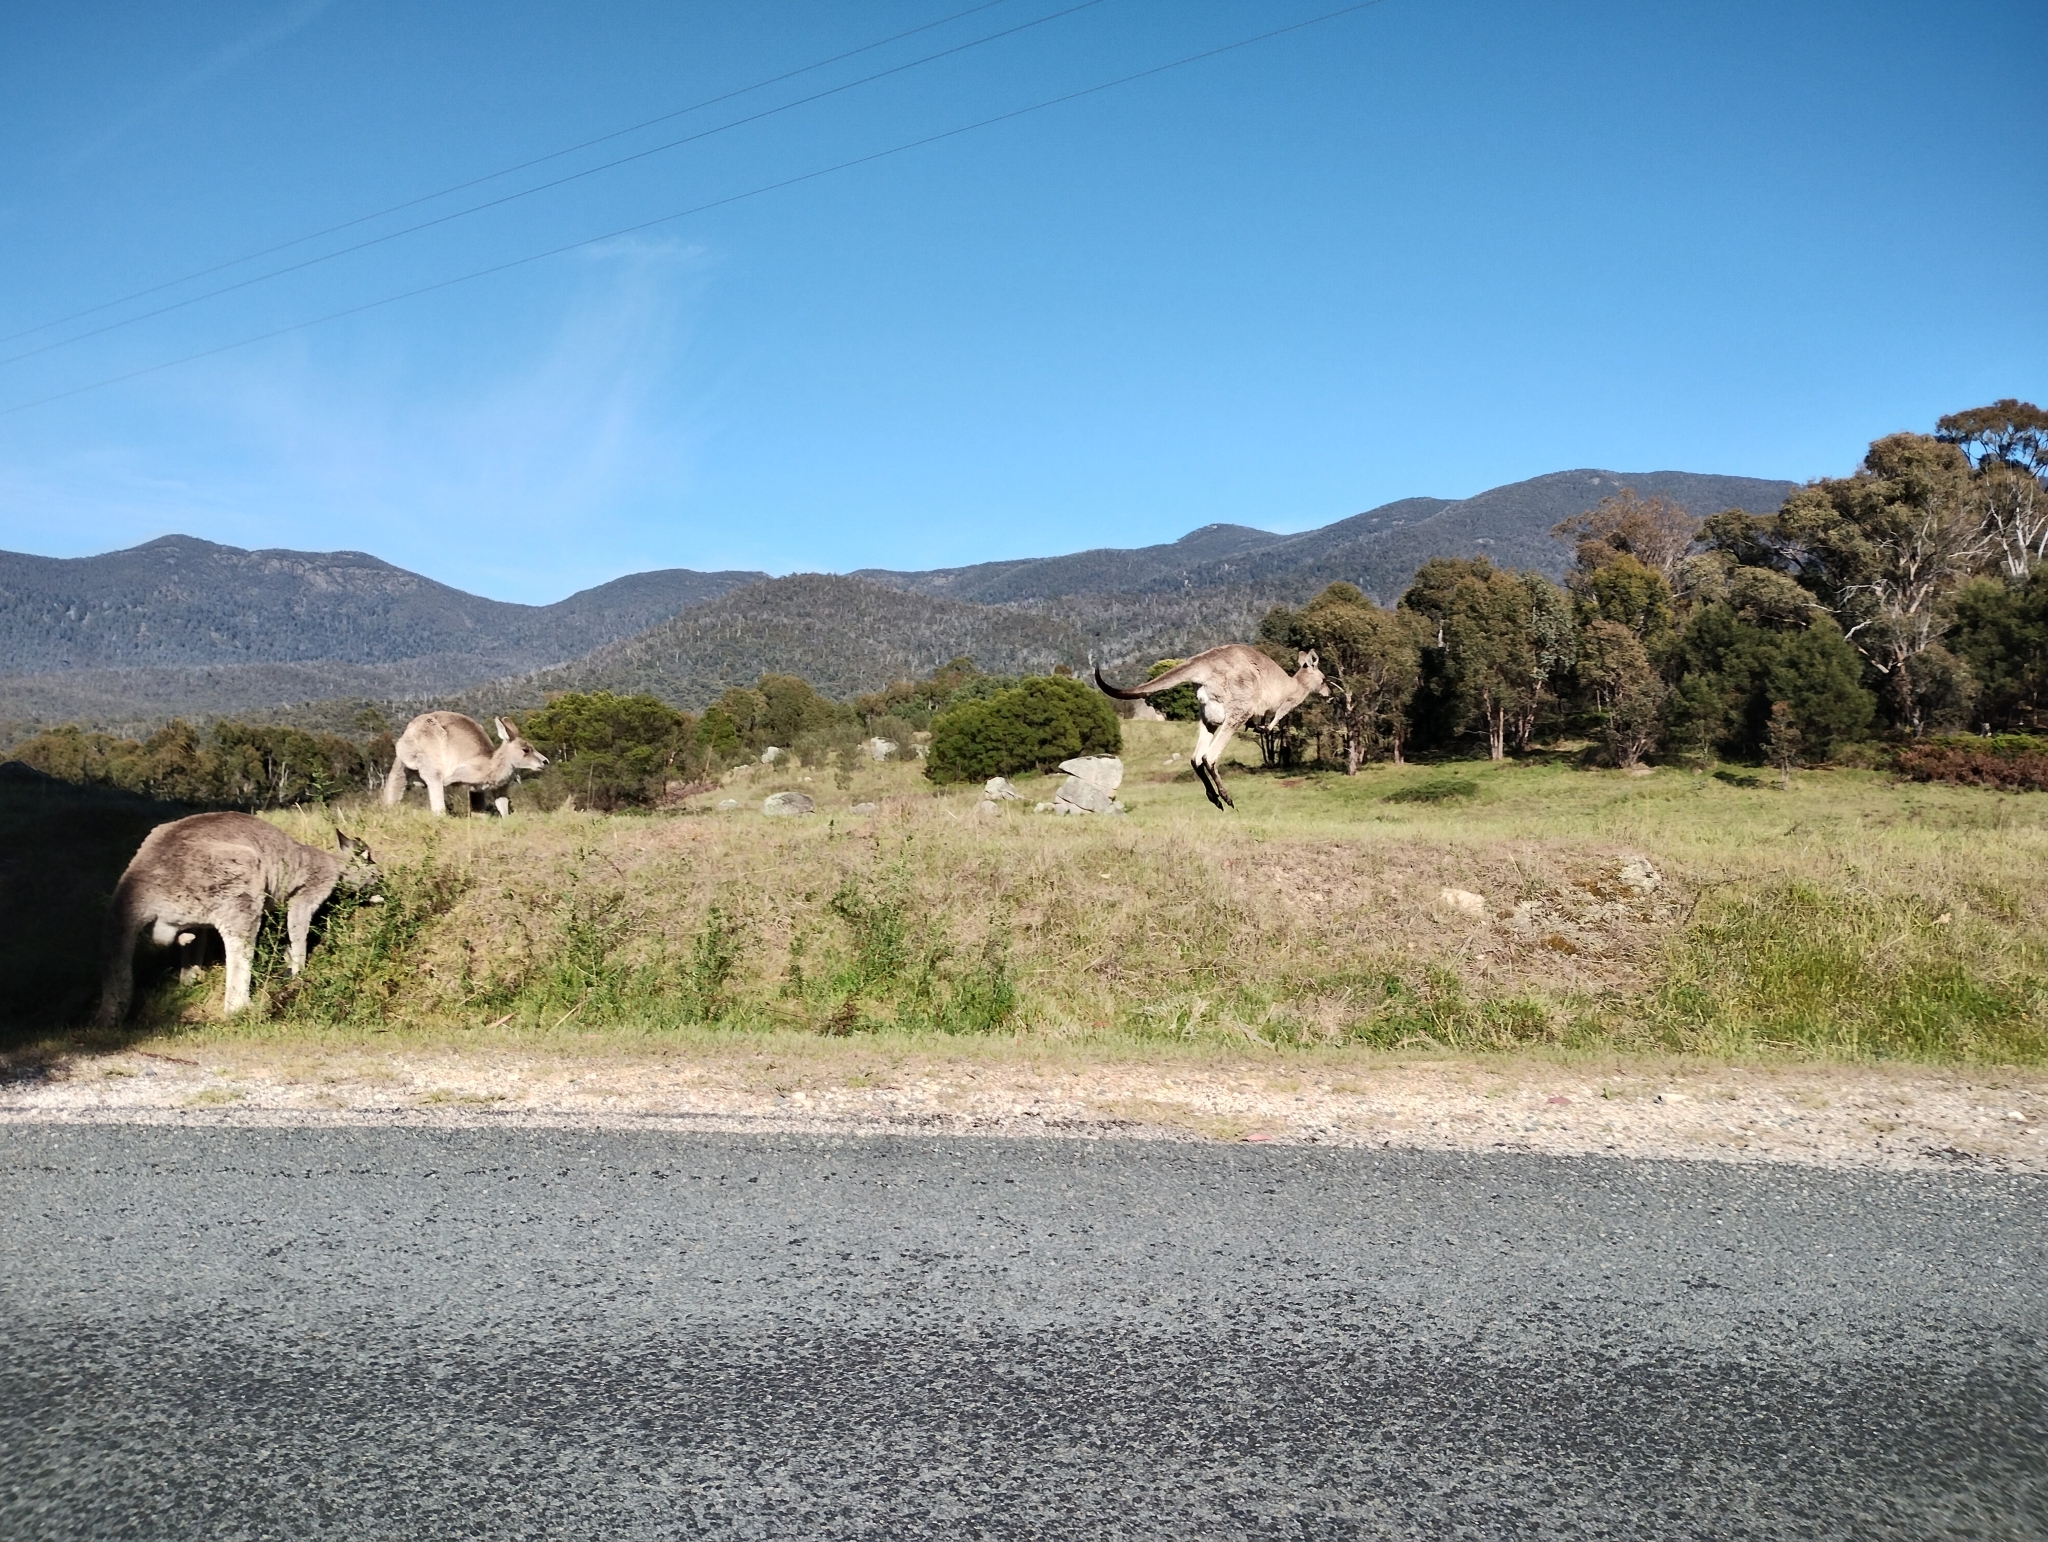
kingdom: Animalia
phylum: Chordata
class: Mammalia
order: Diprotodontia
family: Macropodidae
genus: Macropus
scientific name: Macropus giganteus
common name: Eastern grey kangaroo
